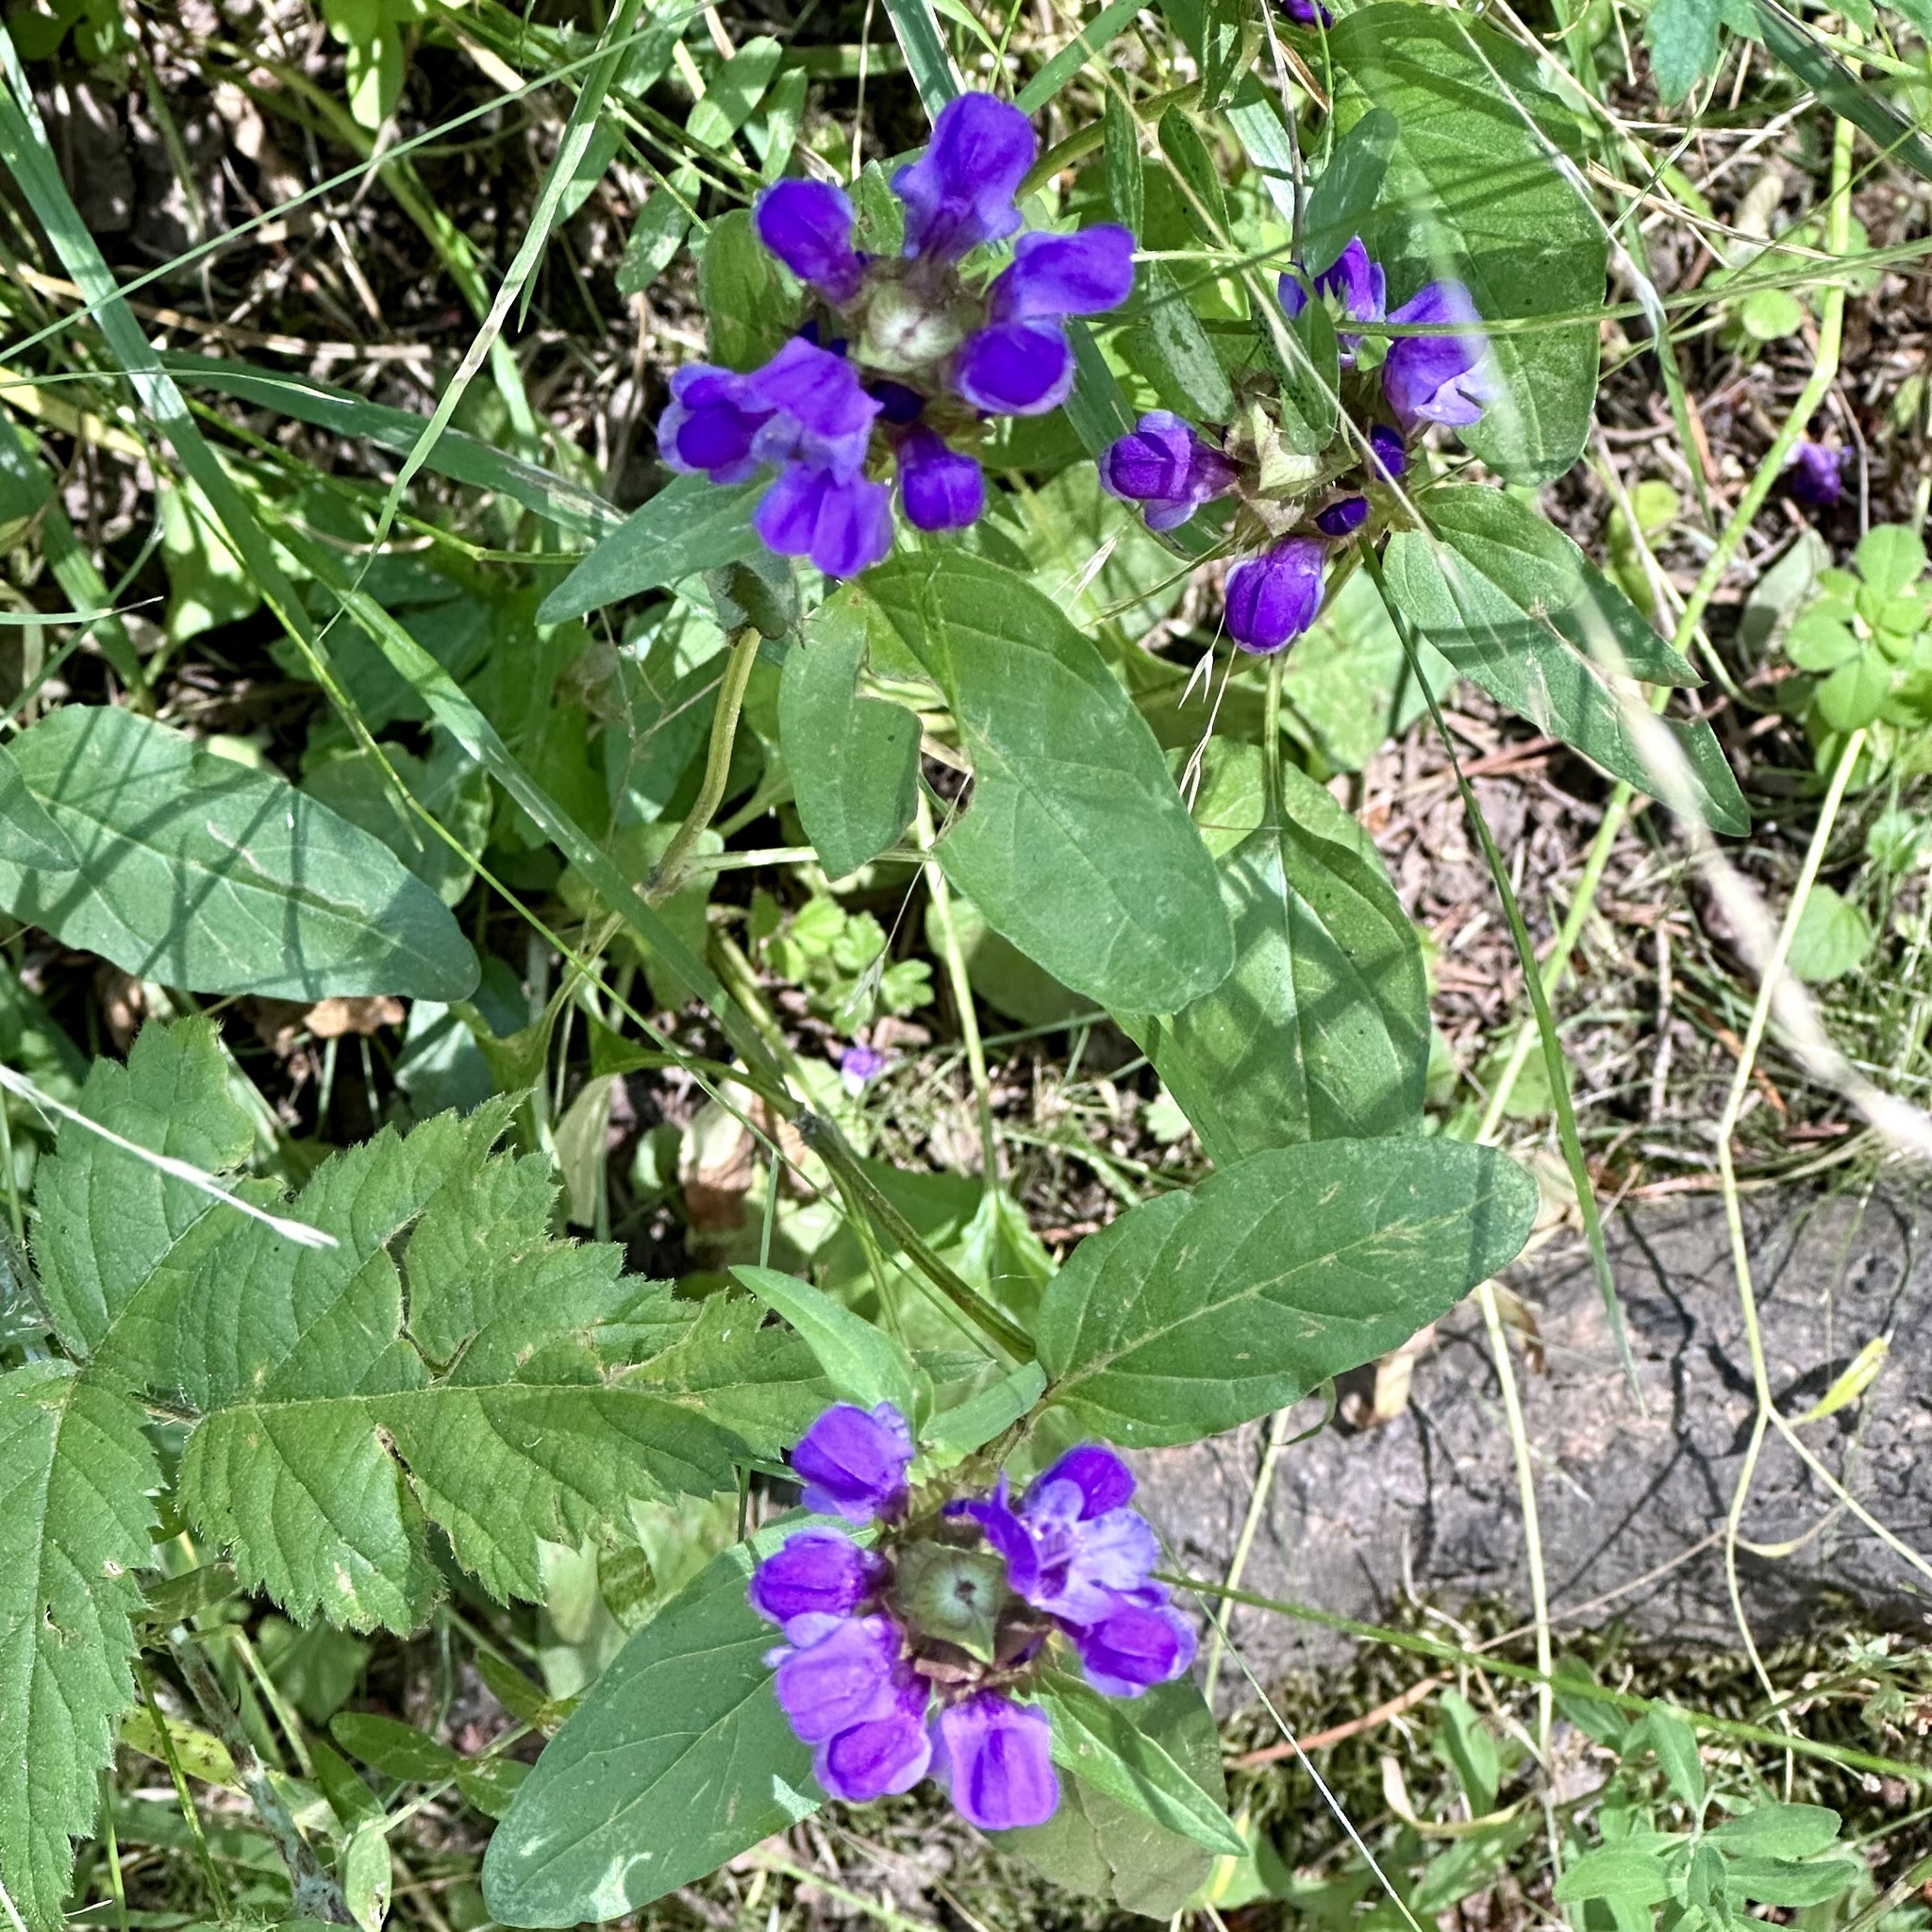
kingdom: Plantae
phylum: Tracheophyta
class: Magnoliopsida
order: Lamiales
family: Lamiaceae
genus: Prunella
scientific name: Prunella vulgaris
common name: Heal-all
